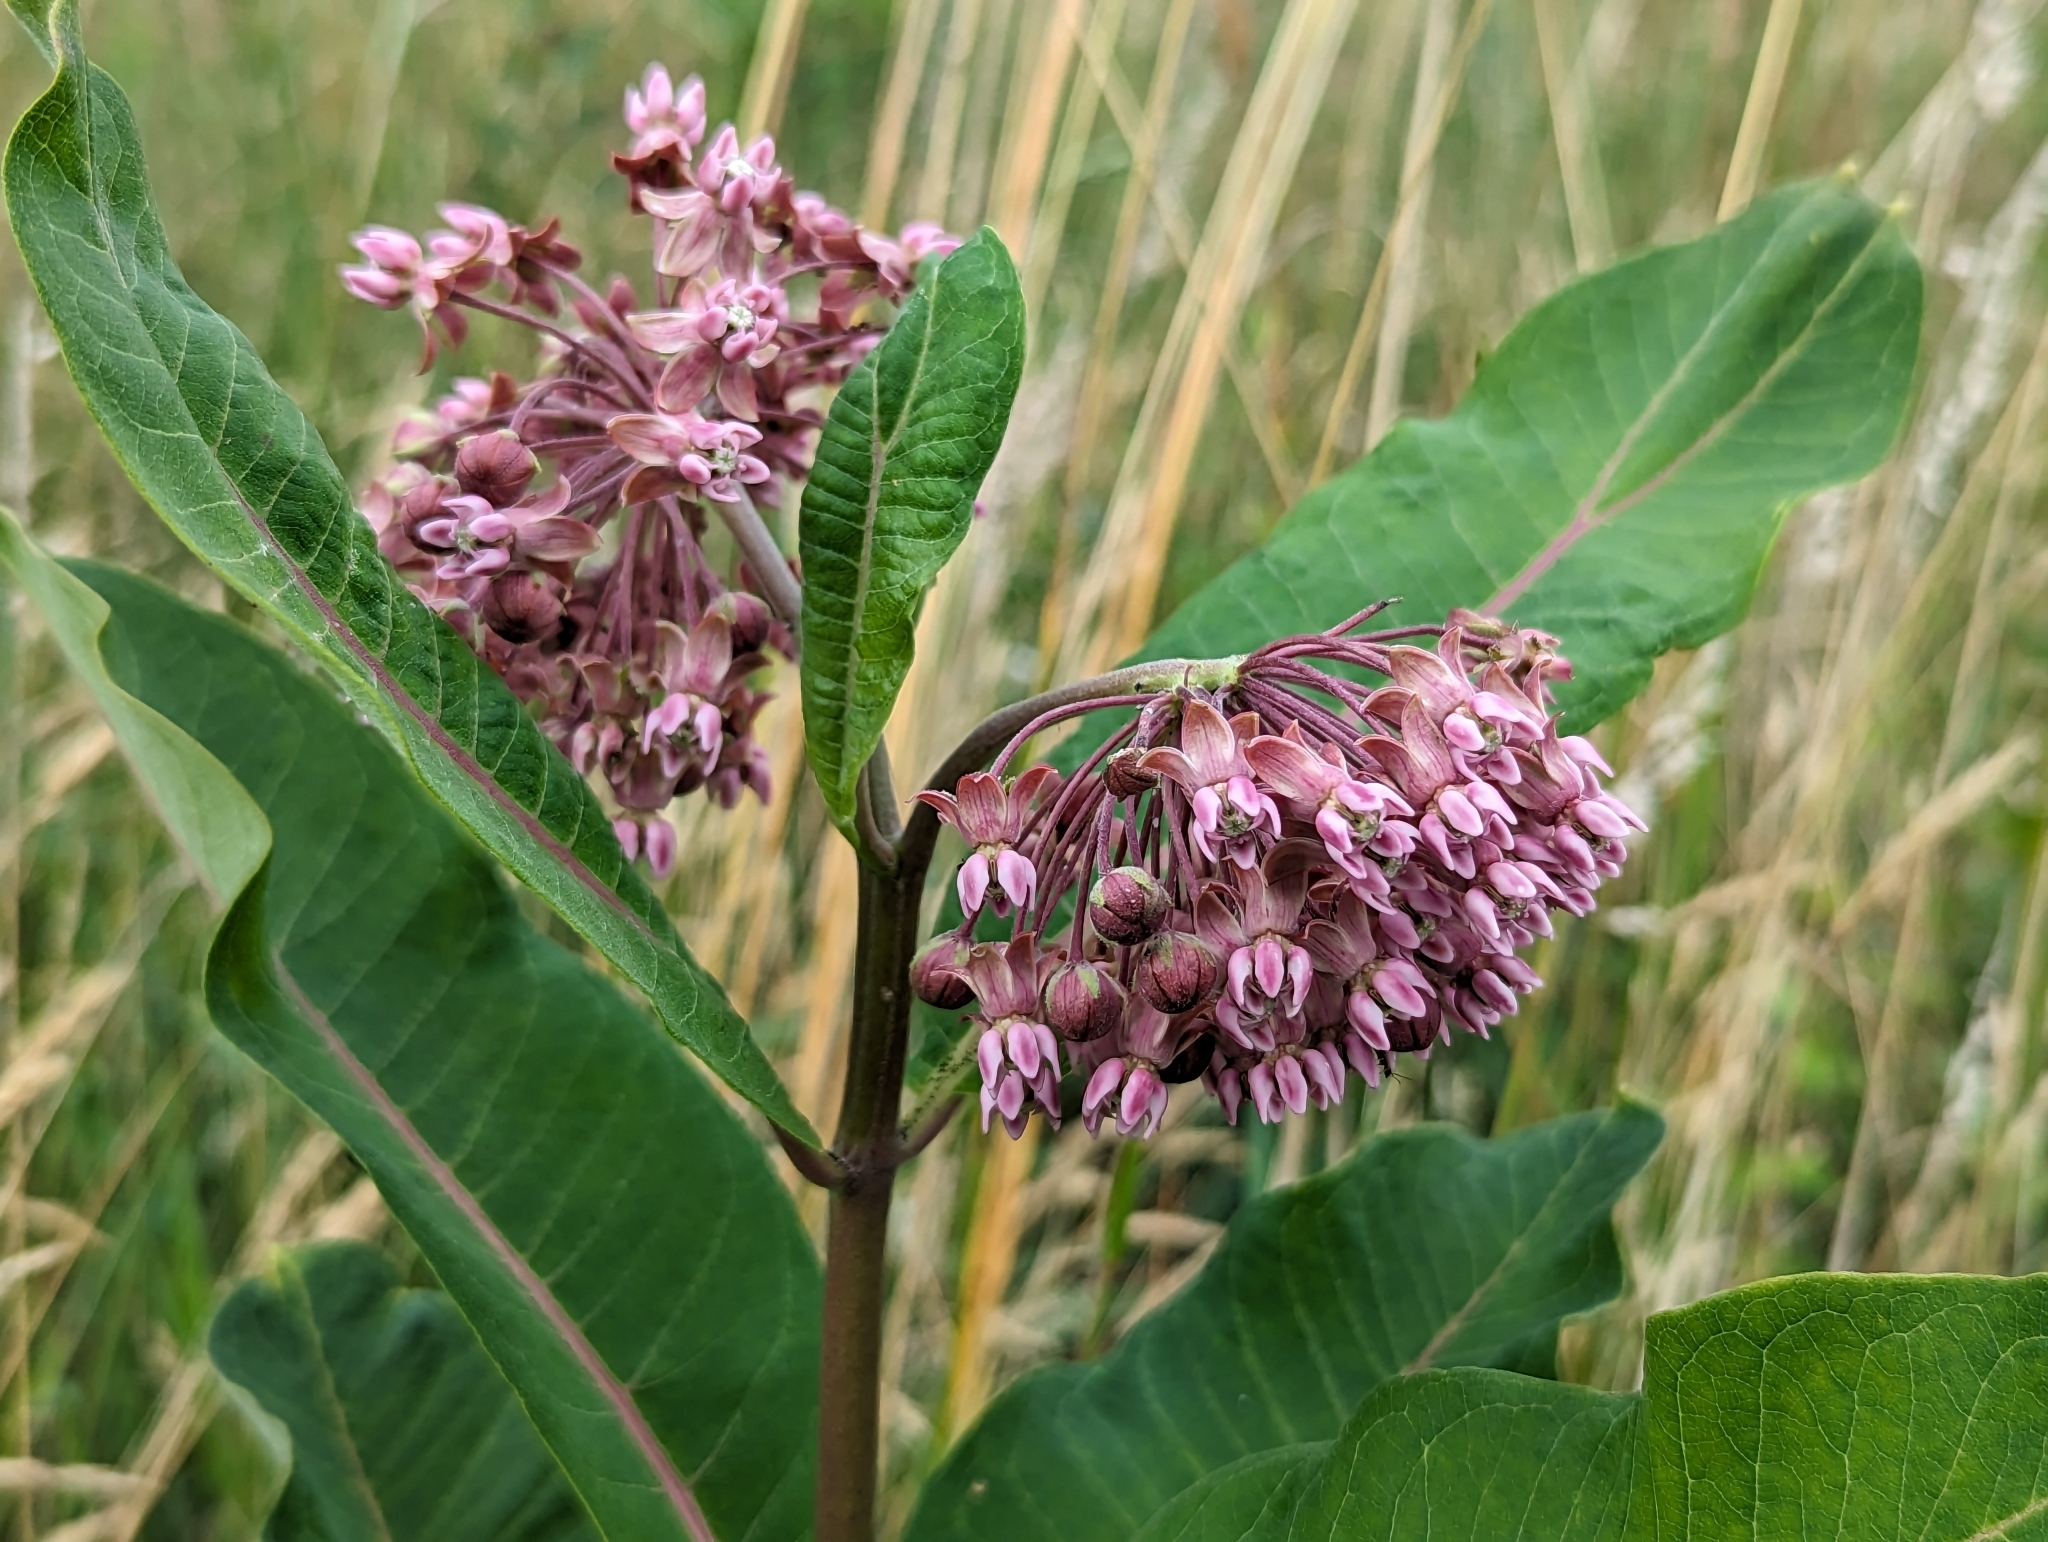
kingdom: Plantae
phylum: Tracheophyta
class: Magnoliopsida
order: Gentianales
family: Apocynaceae
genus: Asclepias
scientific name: Asclepias syriaca
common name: Common milkweed
